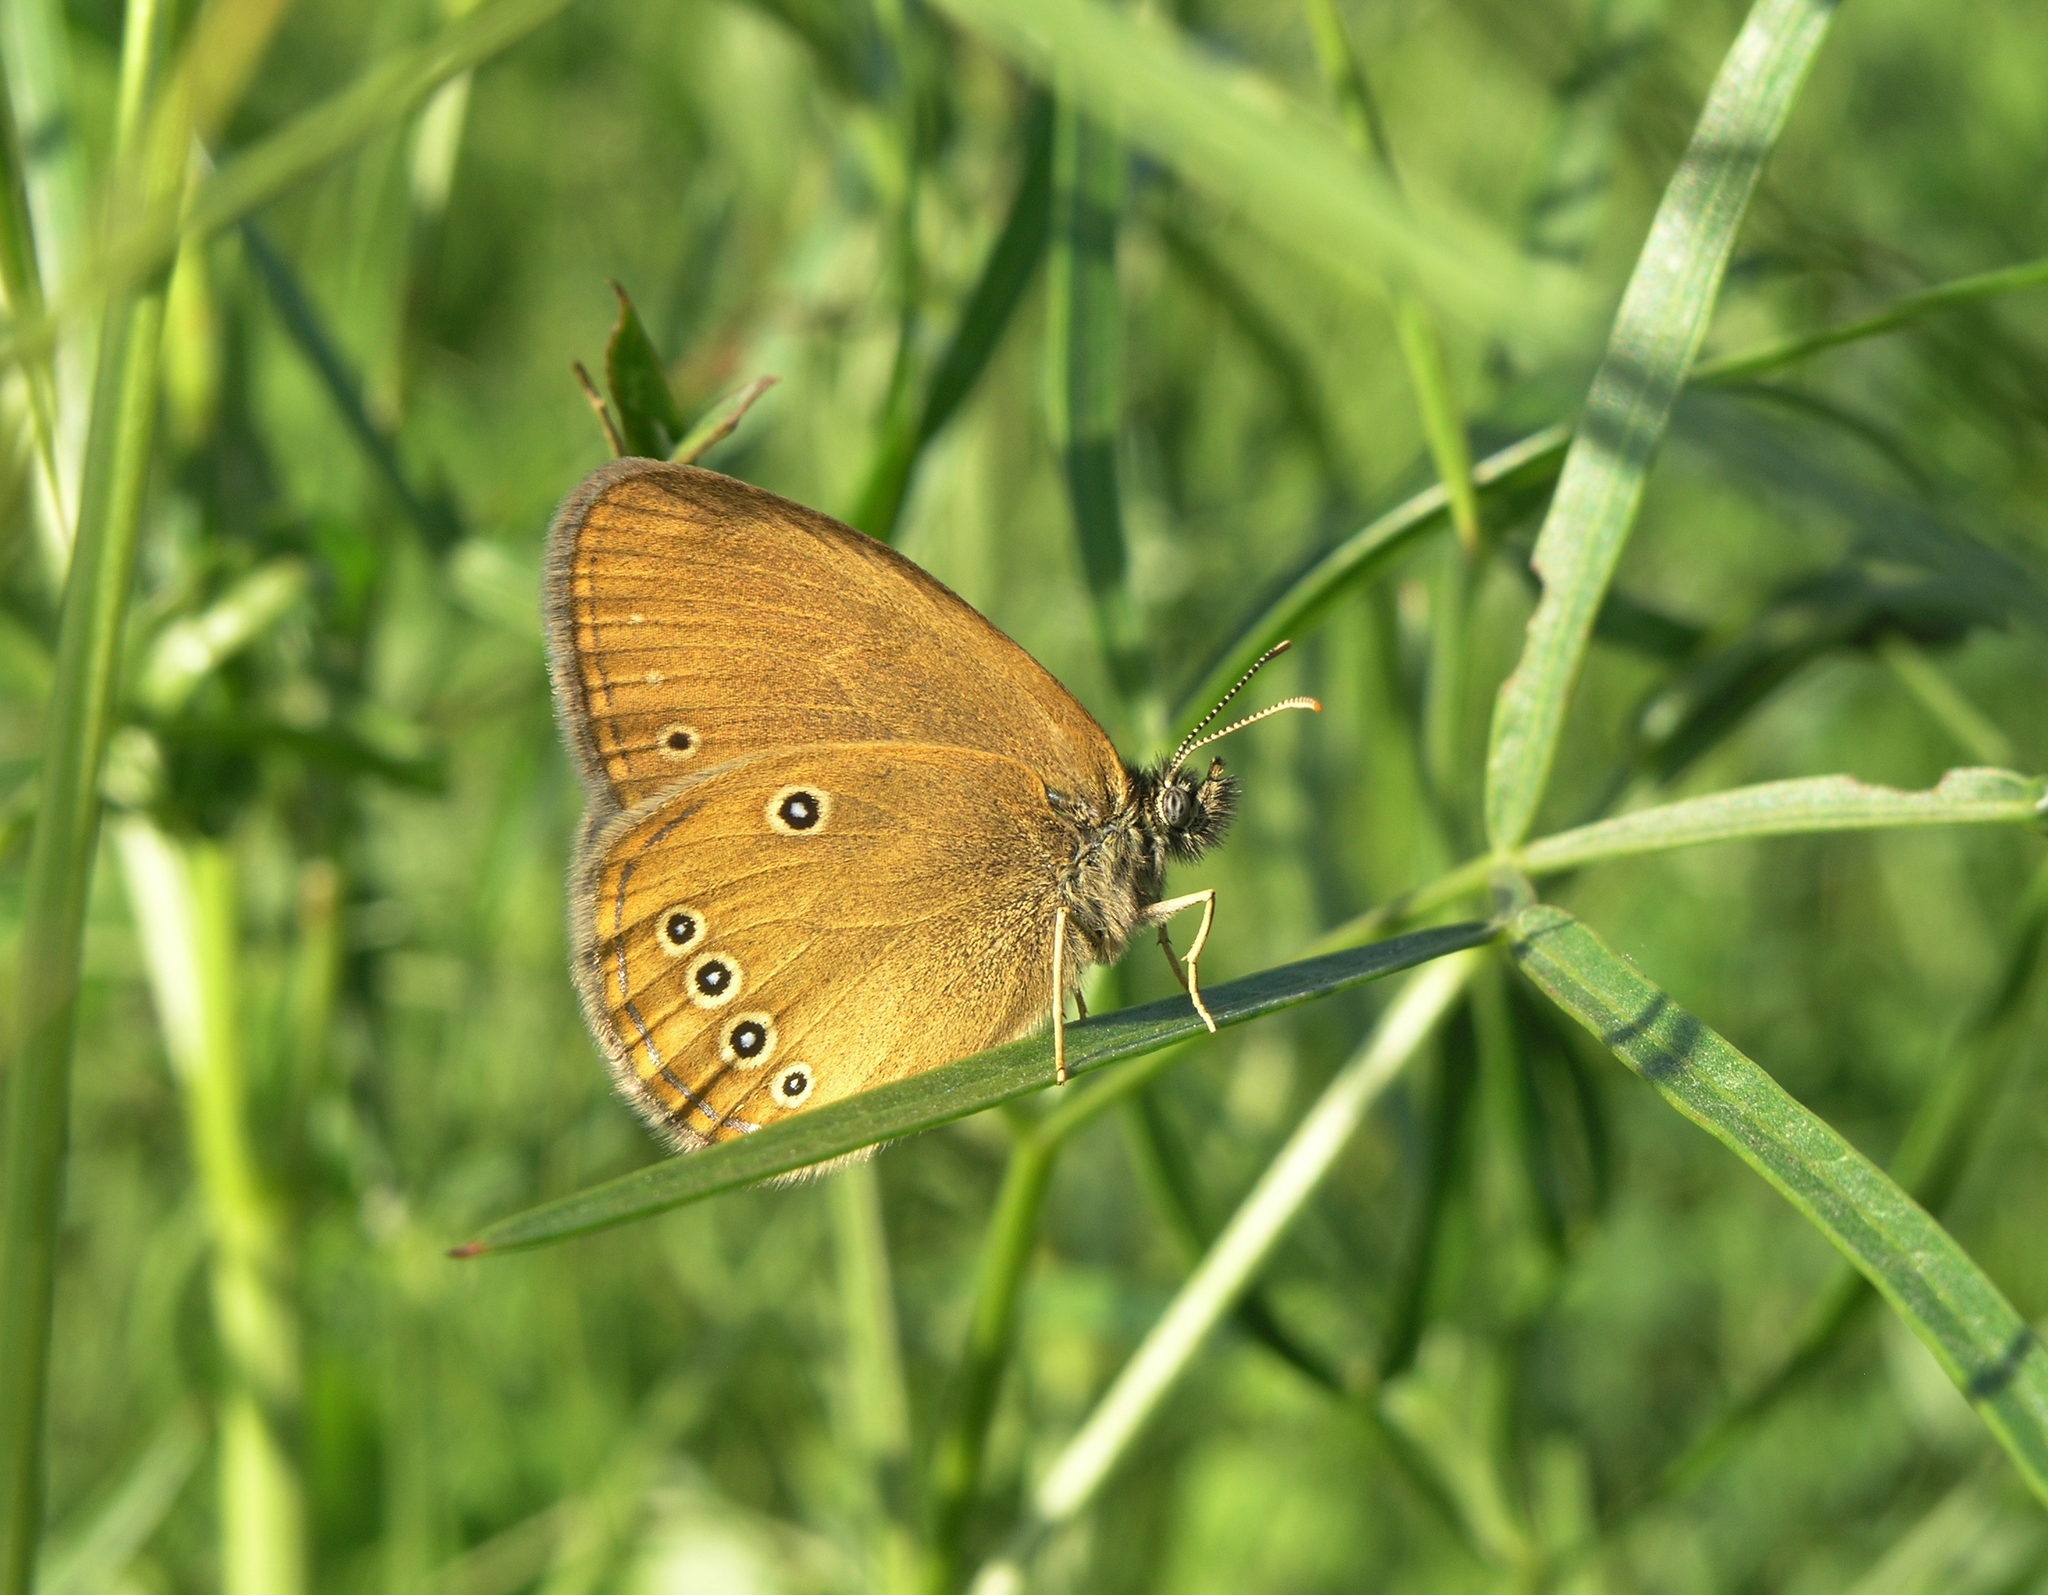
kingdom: Animalia
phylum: Arthropoda
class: Insecta
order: Lepidoptera
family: Nymphalidae
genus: Coenonympha
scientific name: Coenonympha oedippus
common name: False ringlet
